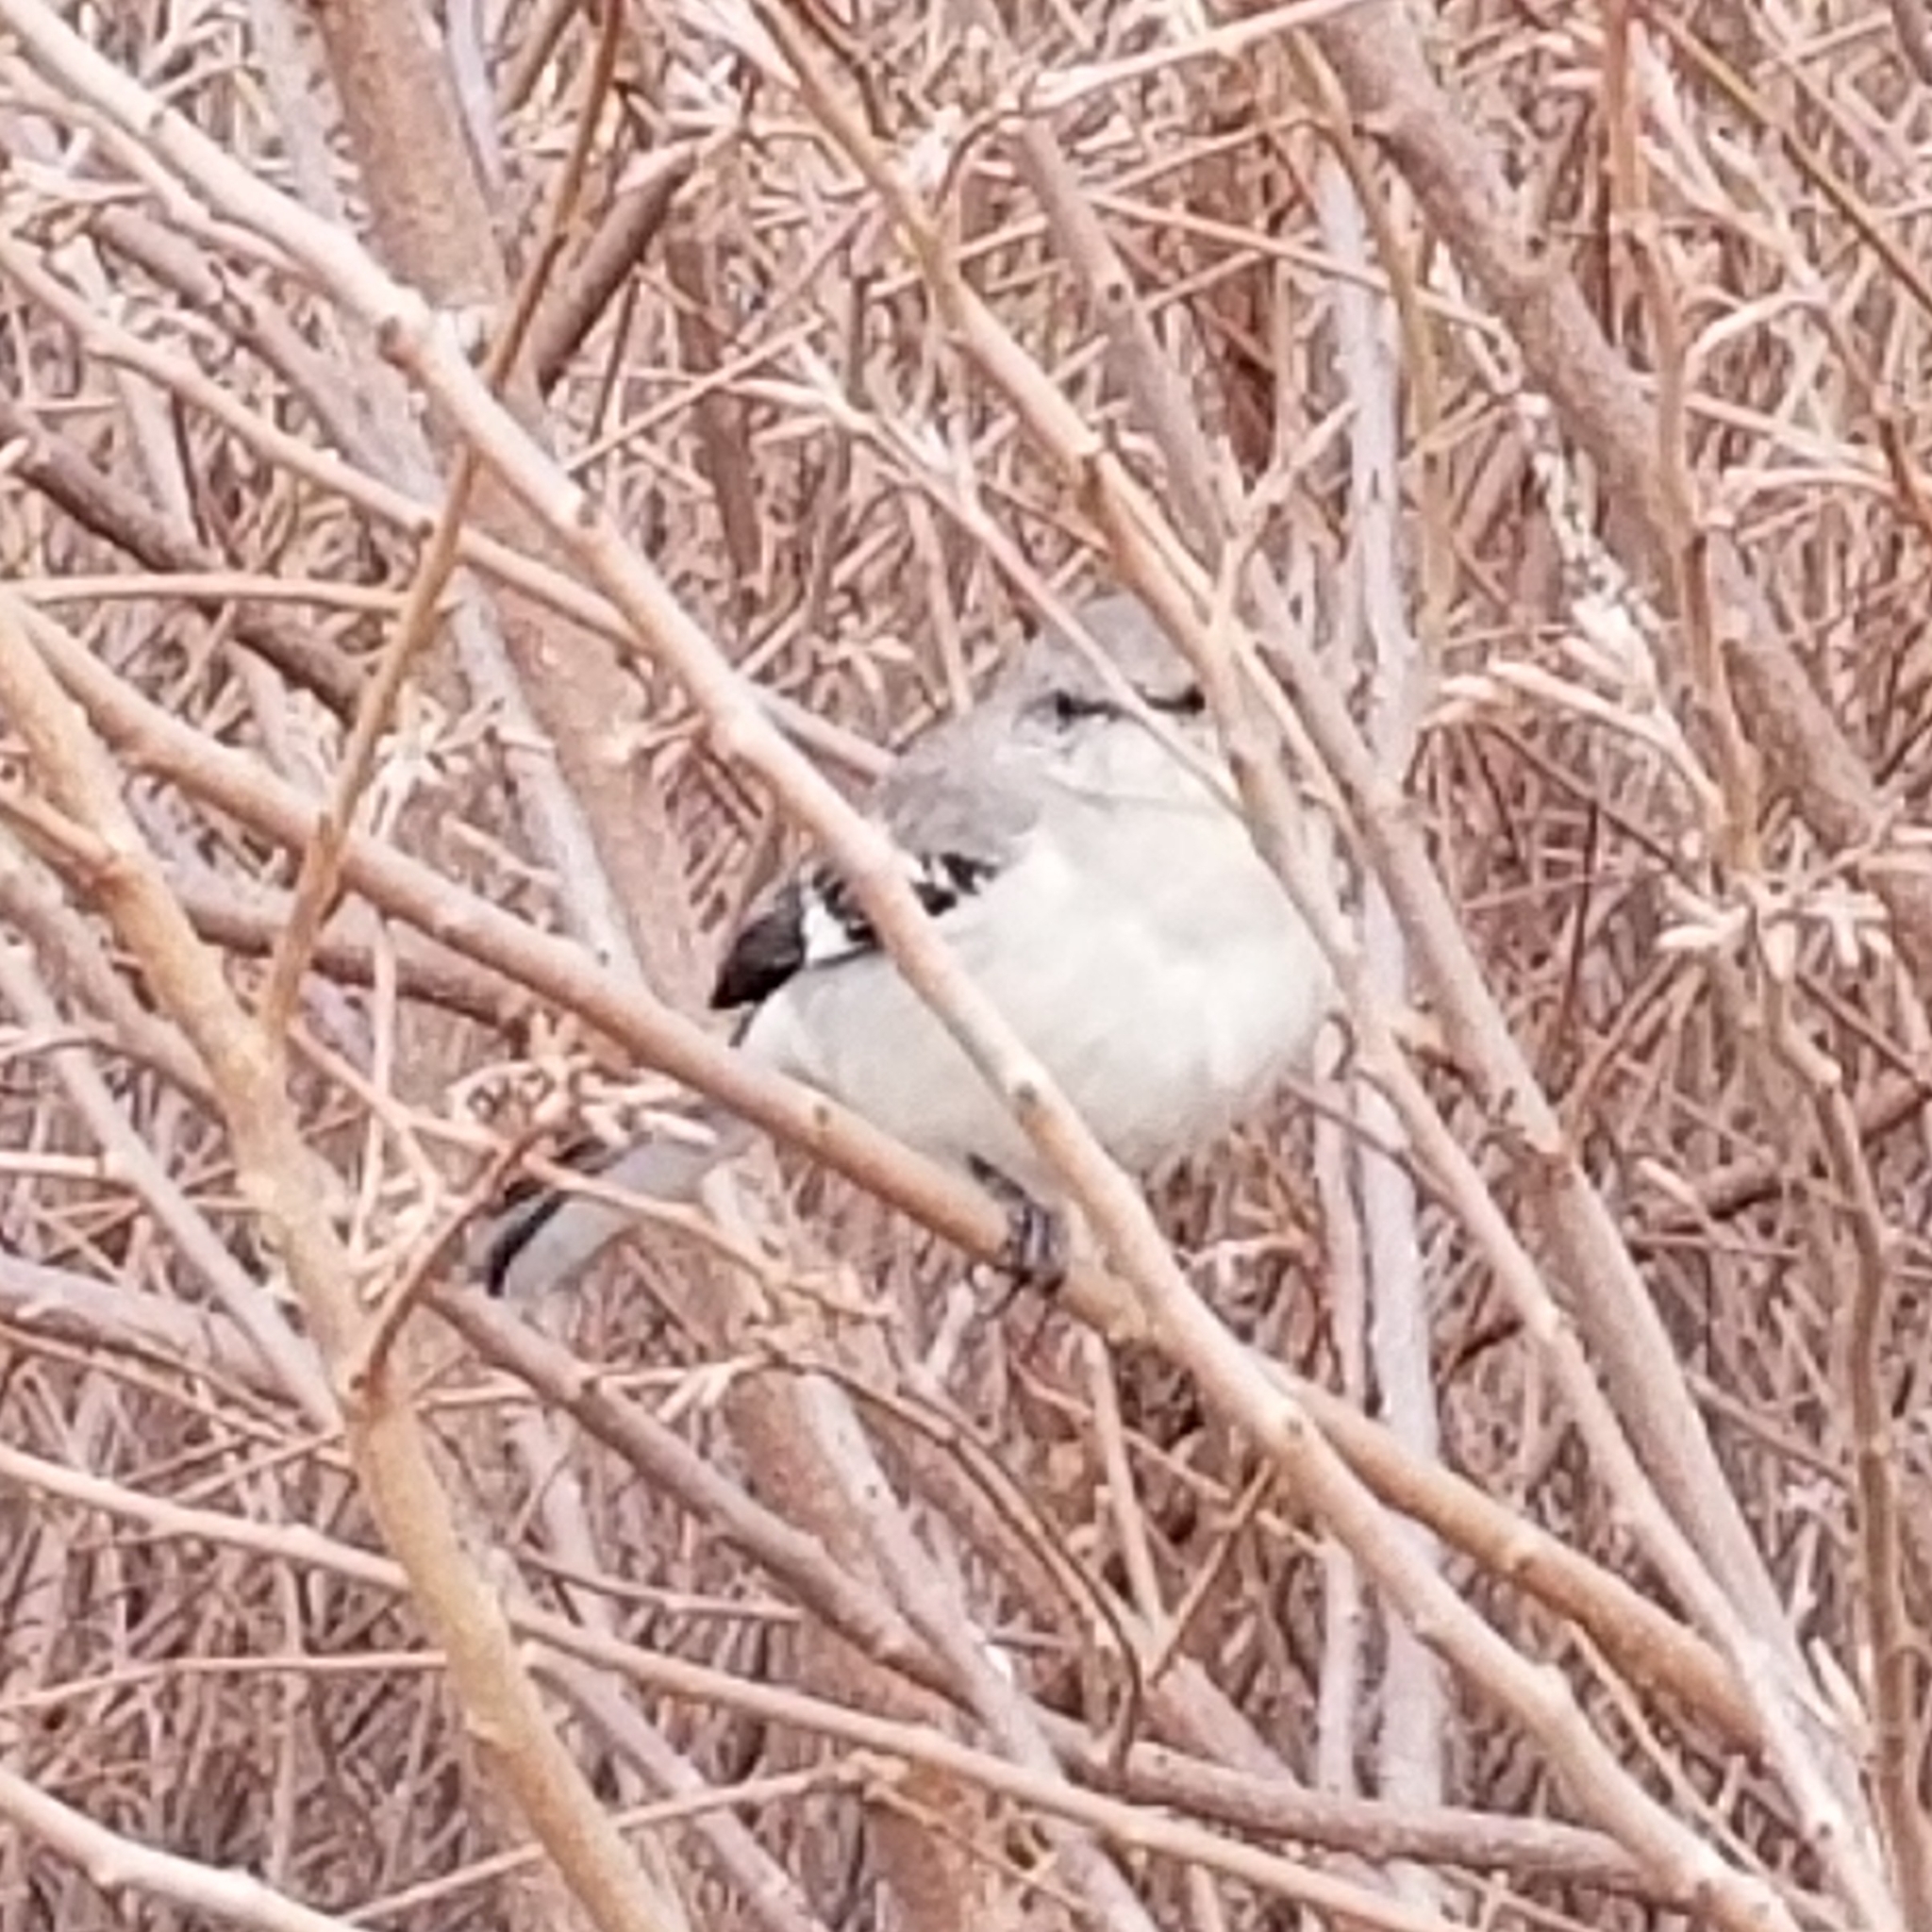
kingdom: Animalia
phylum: Chordata
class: Aves
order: Passeriformes
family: Mimidae
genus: Mimus
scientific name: Mimus polyglottos
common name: Northern mockingbird
